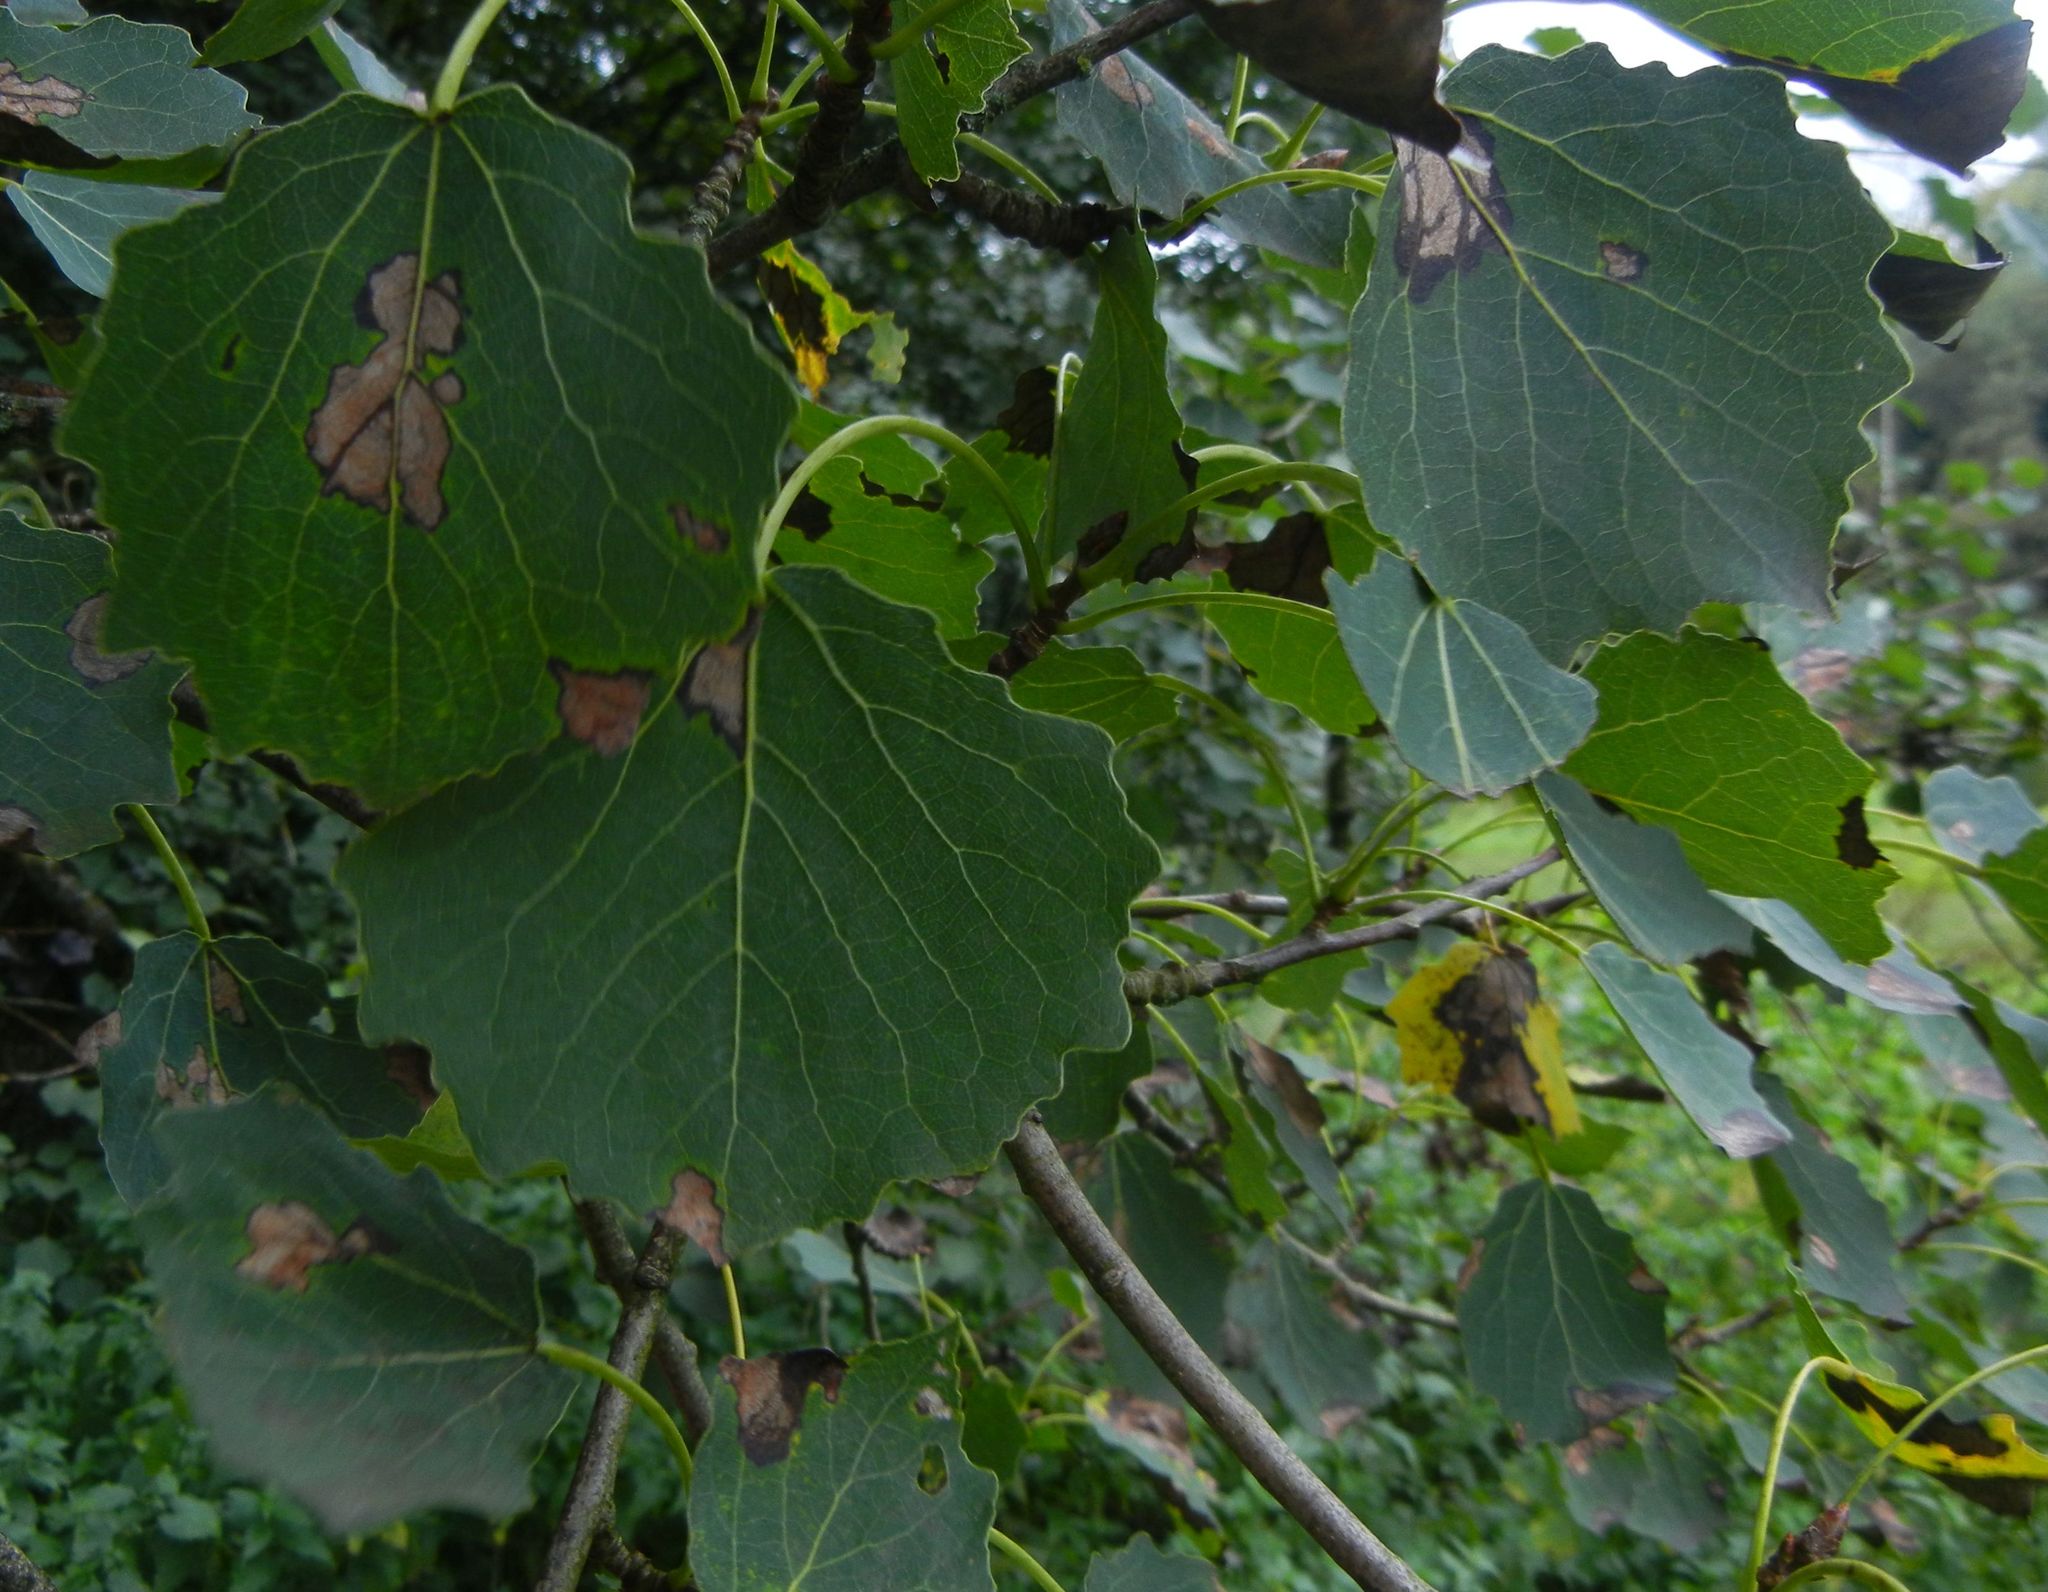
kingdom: Plantae
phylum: Tracheophyta
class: Magnoliopsida
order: Malpighiales
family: Salicaceae
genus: Populus
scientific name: Populus tremula
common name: European aspen
